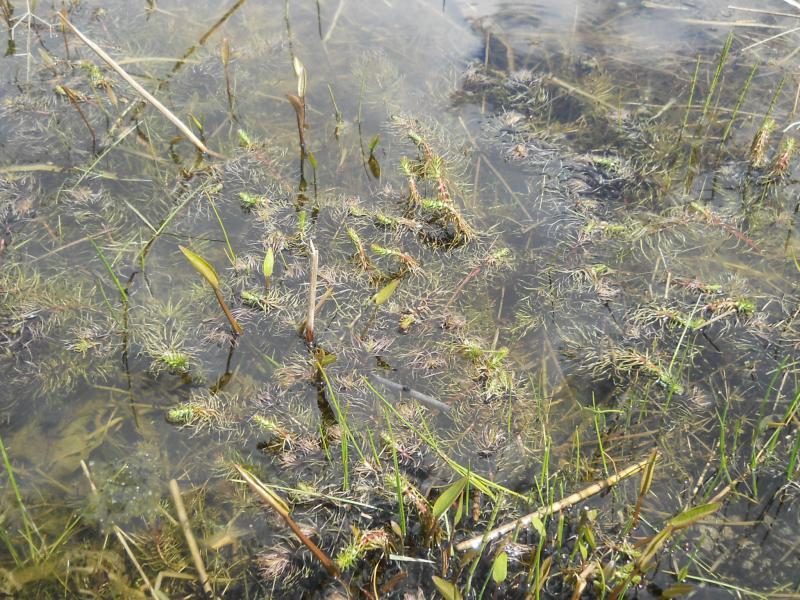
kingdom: Plantae
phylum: Tracheophyta
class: Magnoliopsida
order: Lamiales
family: Plantaginaceae
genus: Hippuris
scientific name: Hippuris vulgaris
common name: Mare's-tail
